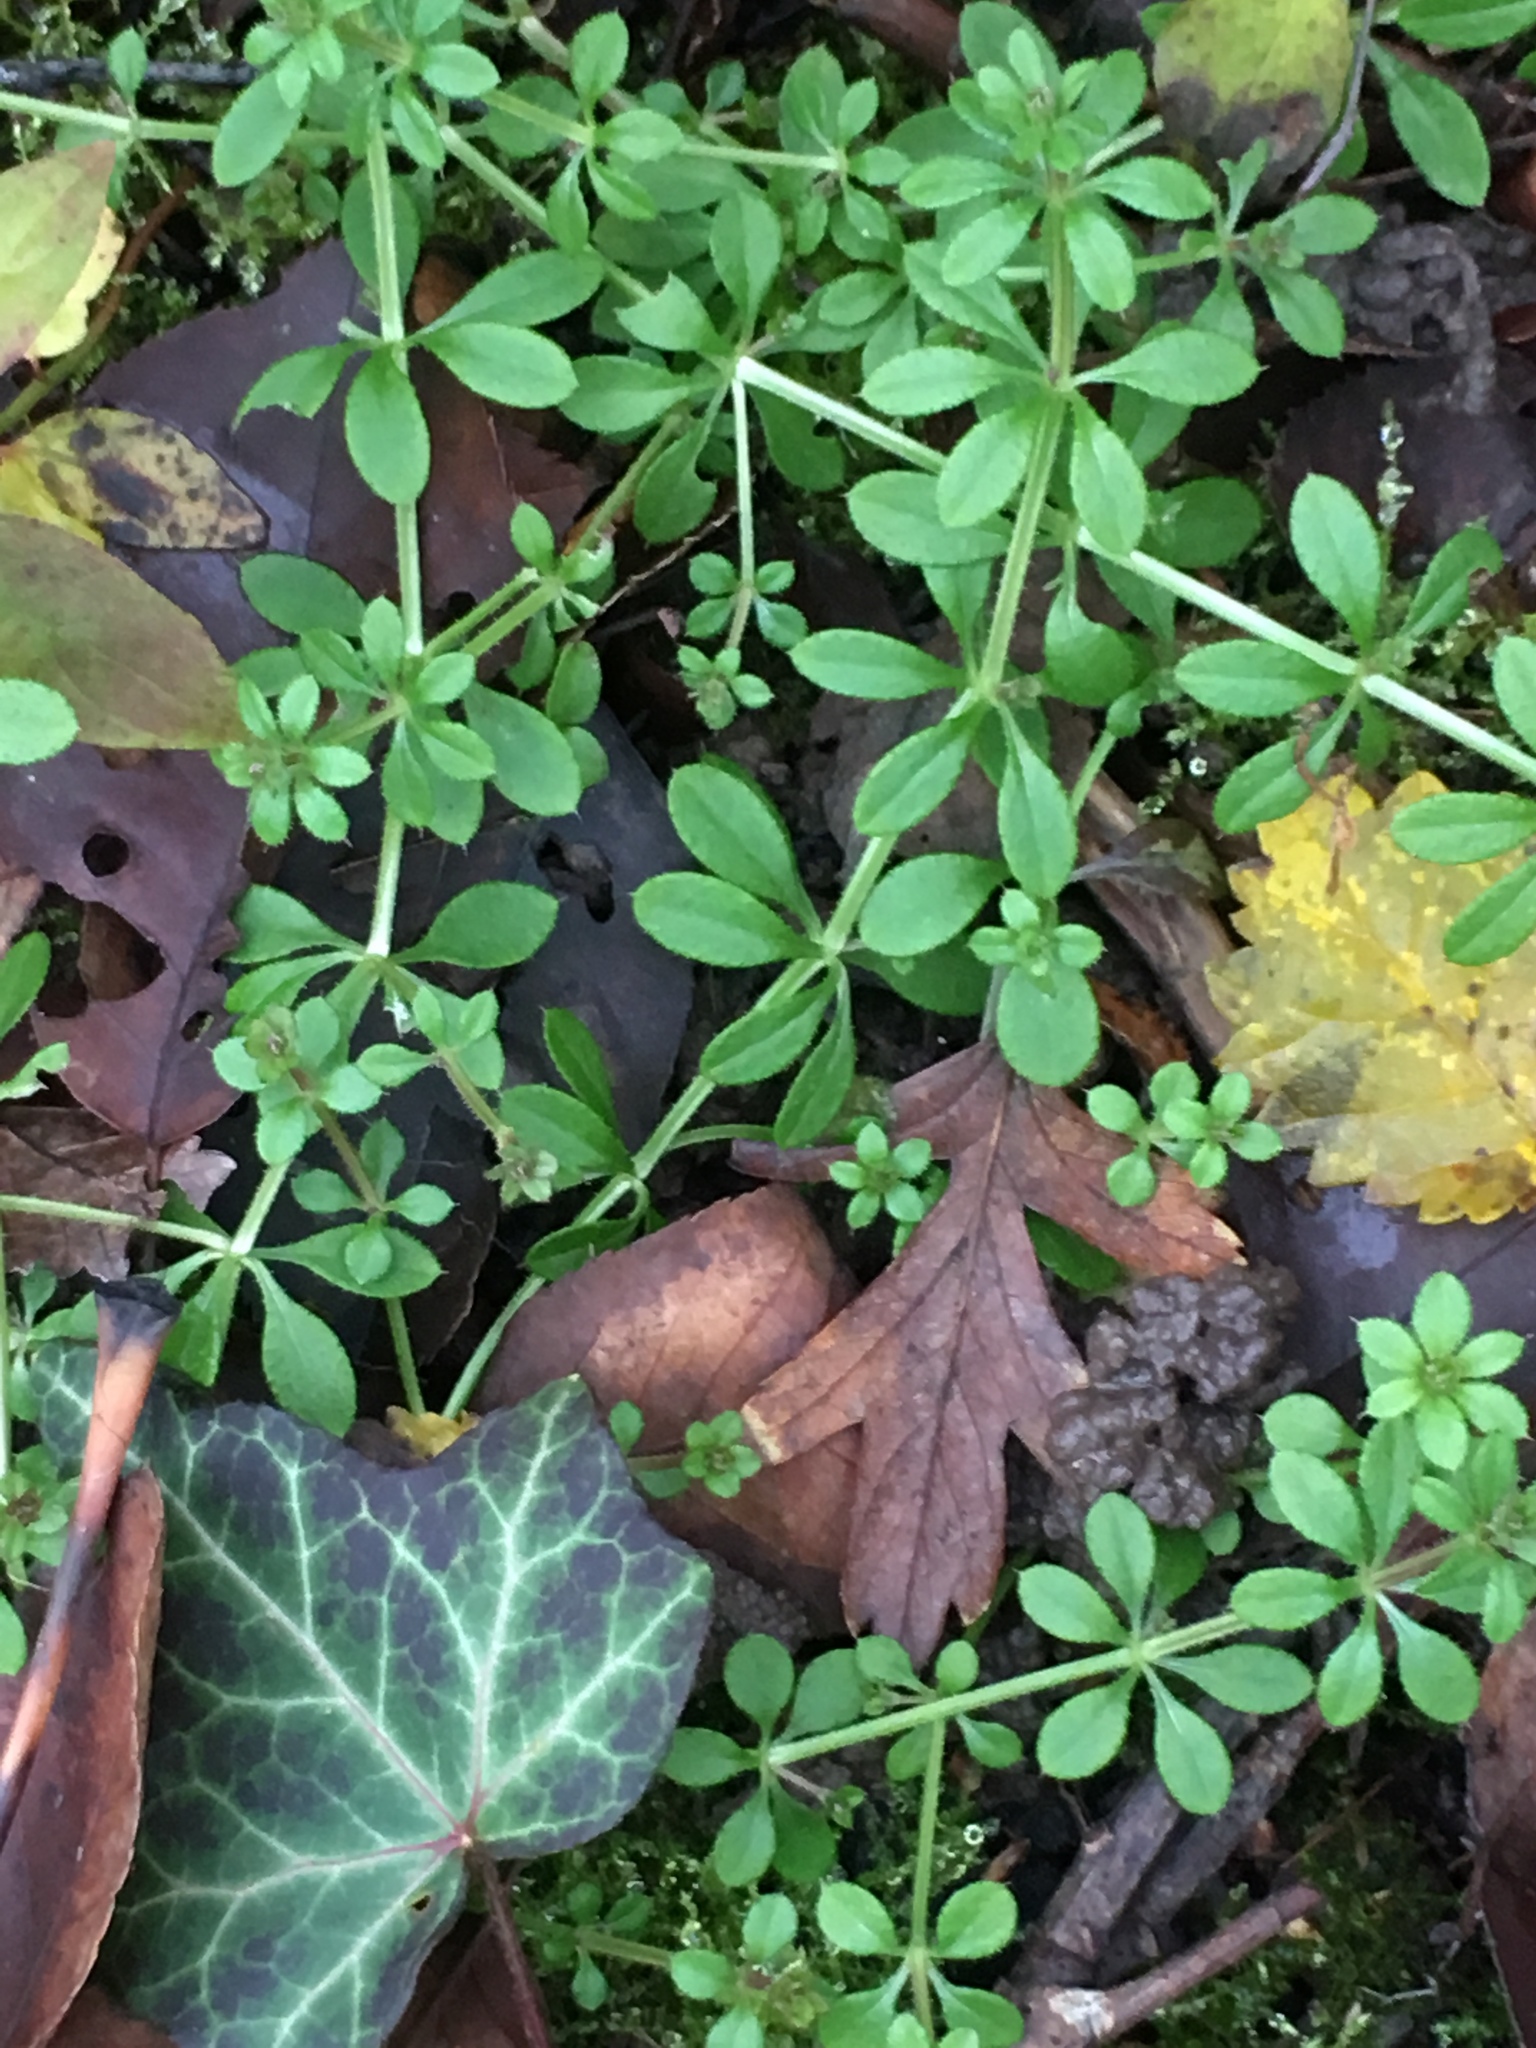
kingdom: Plantae
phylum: Tracheophyta
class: Magnoliopsida
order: Gentianales
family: Rubiaceae
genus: Galium
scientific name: Galium aparine
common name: Cleavers
